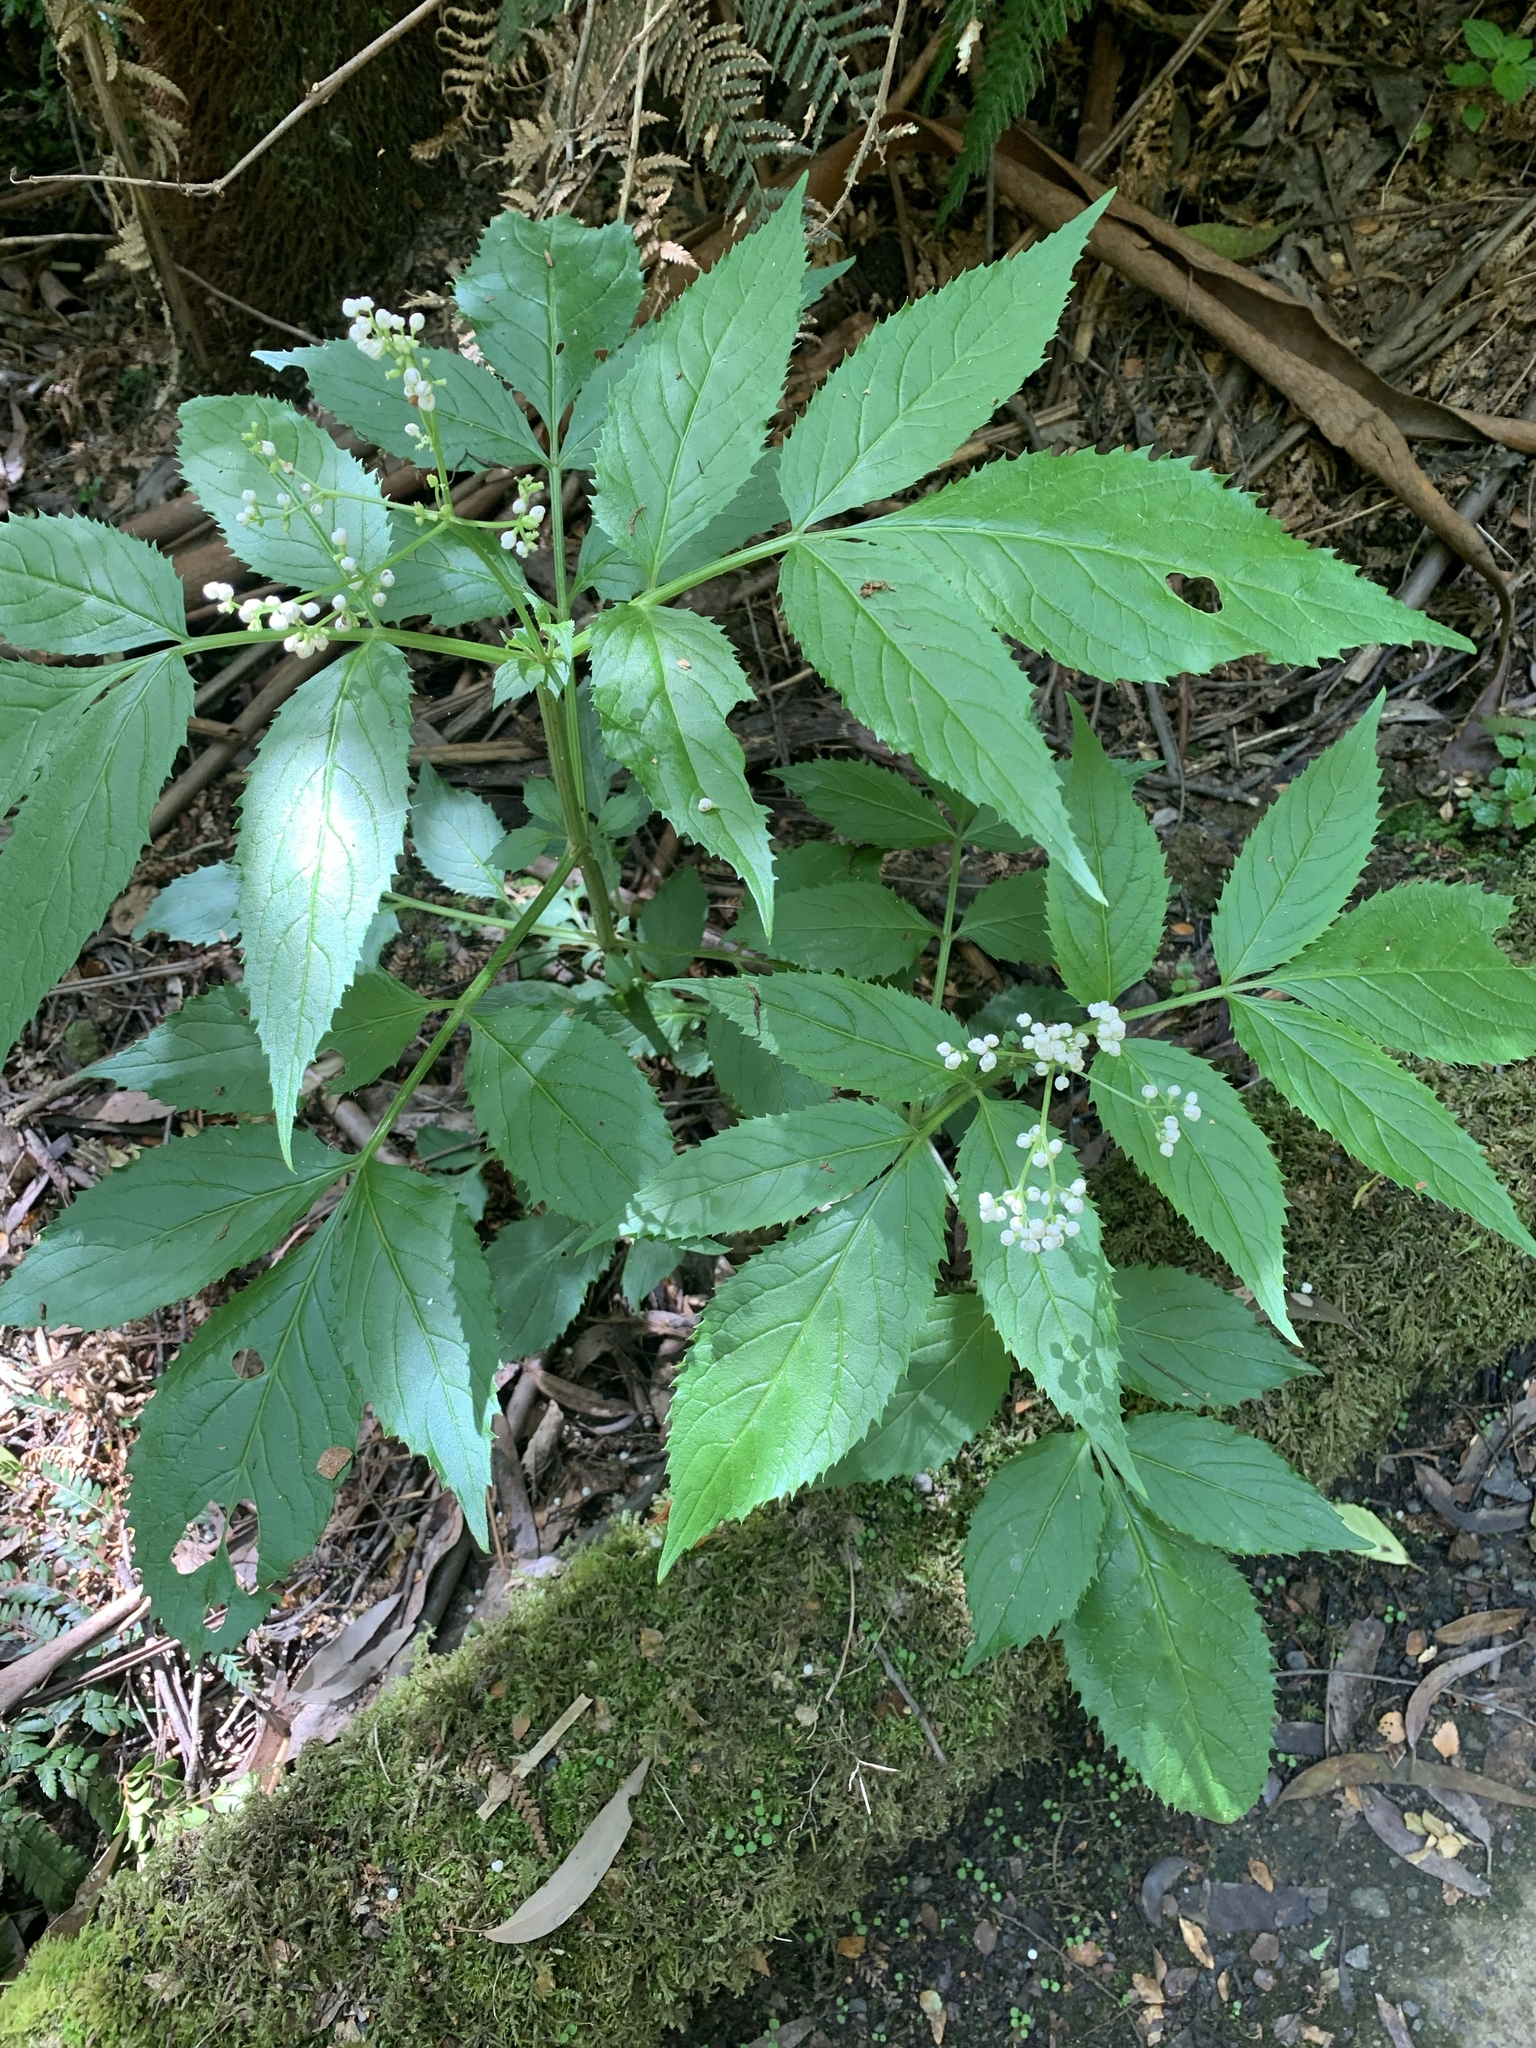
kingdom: Plantae
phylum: Tracheophyta
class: Magnoliopsida
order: Dipsacales
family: Viburnaceae
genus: Sambucus
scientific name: Sambucus gaudichaudiana
